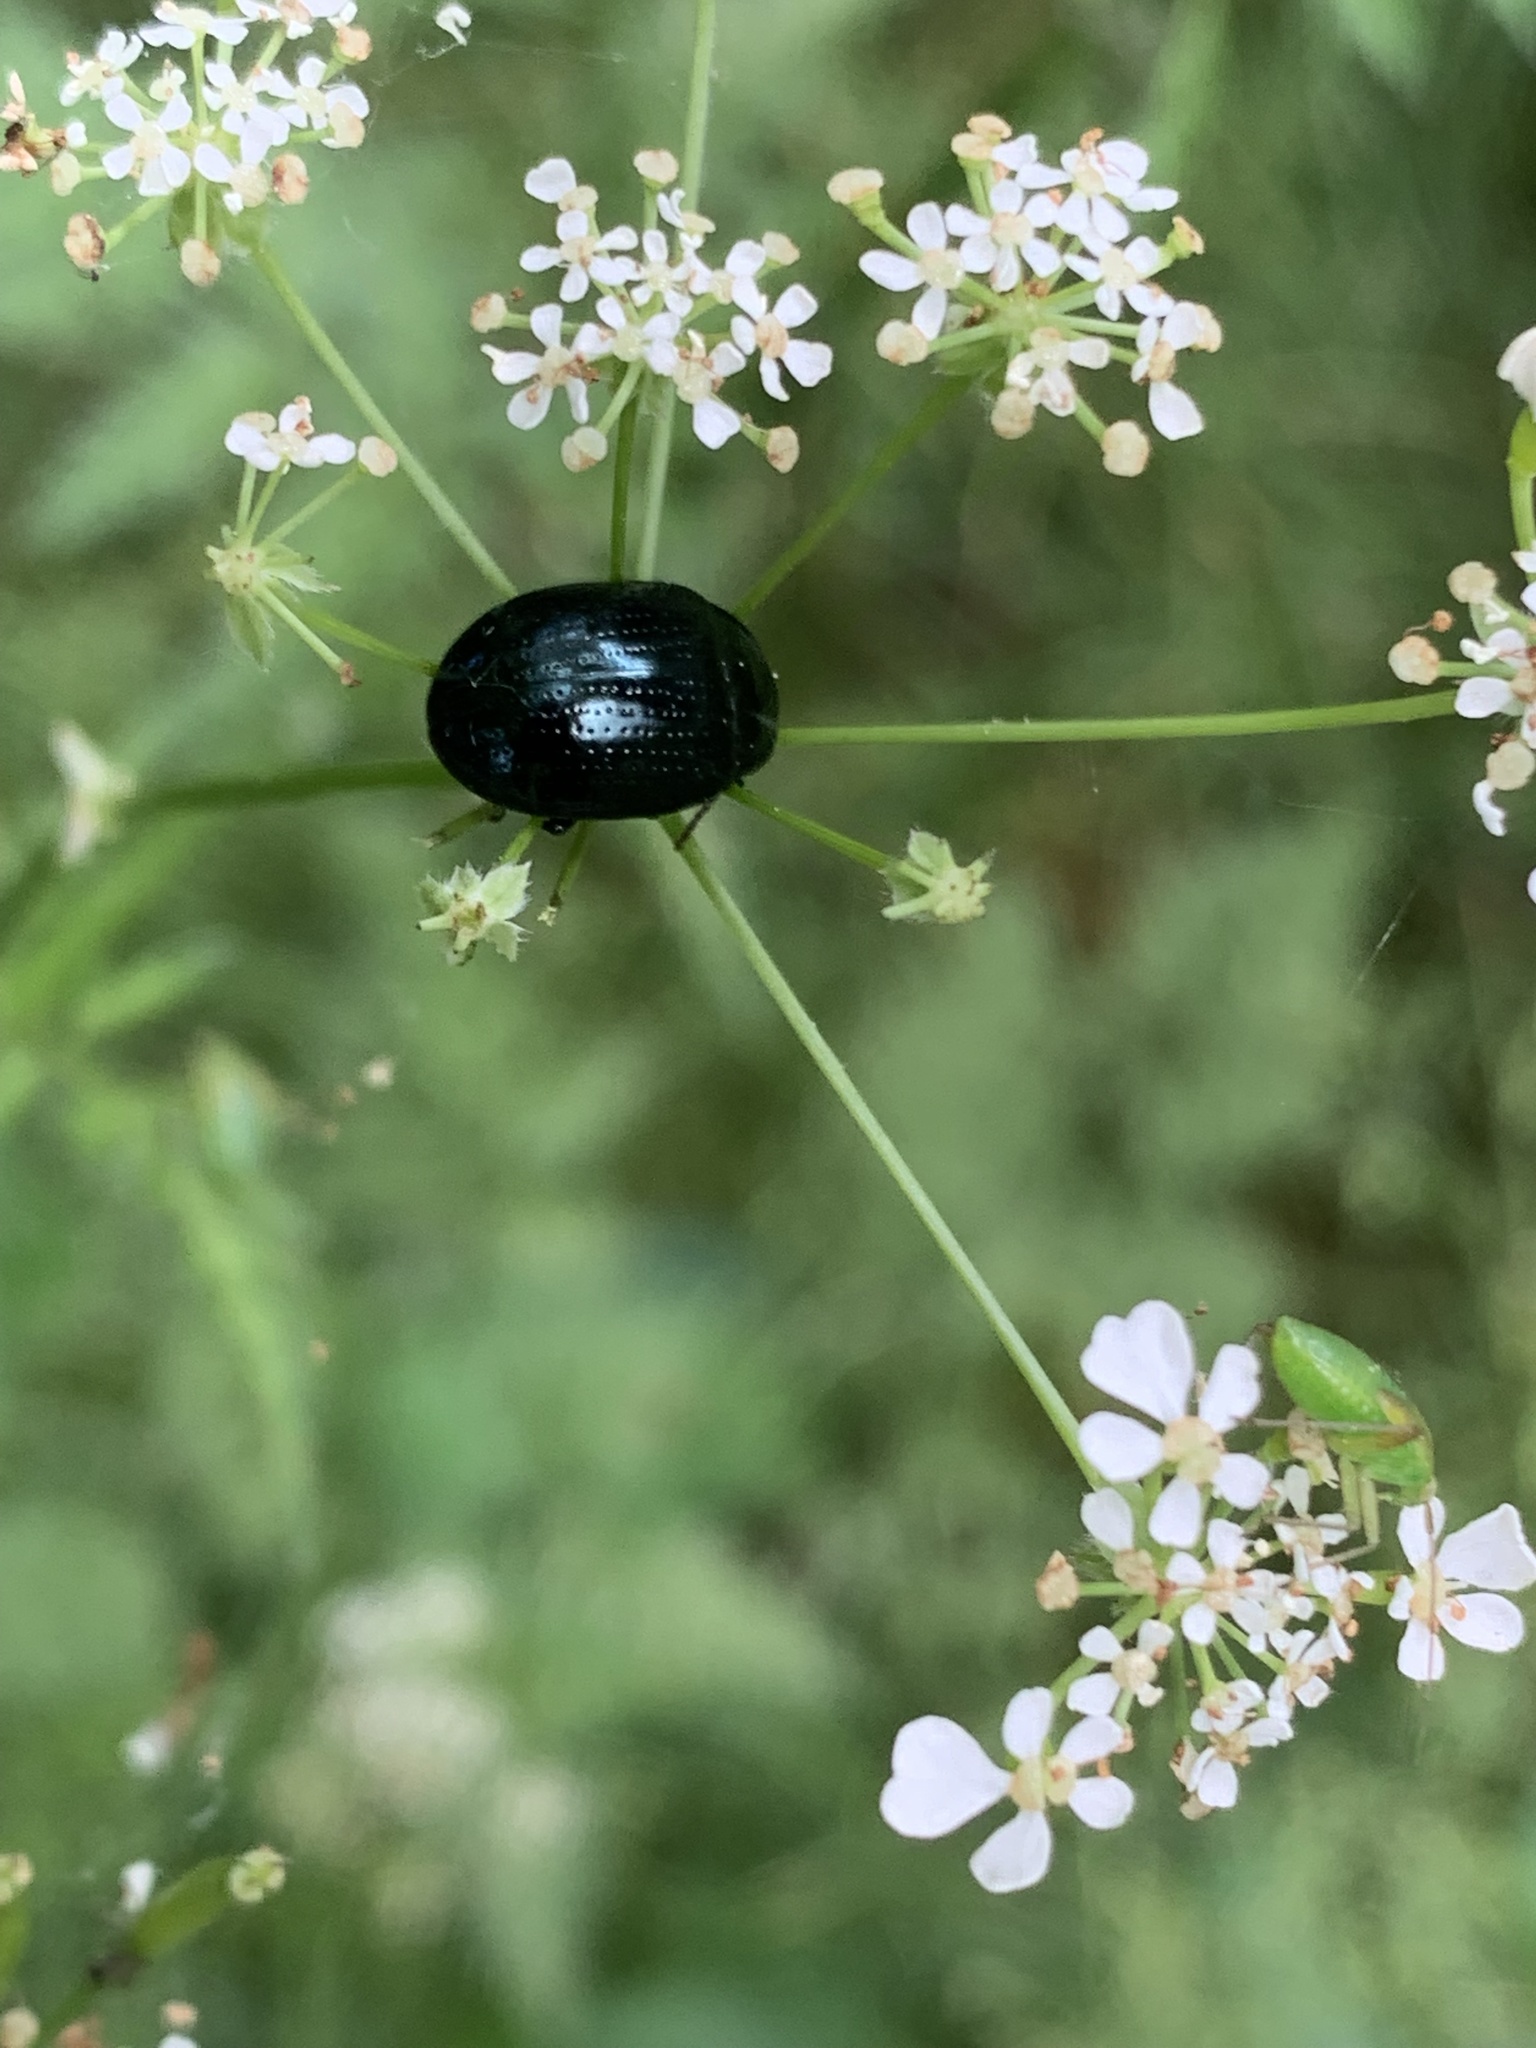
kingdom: Animalia
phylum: Arthropoda
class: Insecta
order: Coleoptera
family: Chrysomelidae
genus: Chrysolina
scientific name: Chrysolina oricalcia
